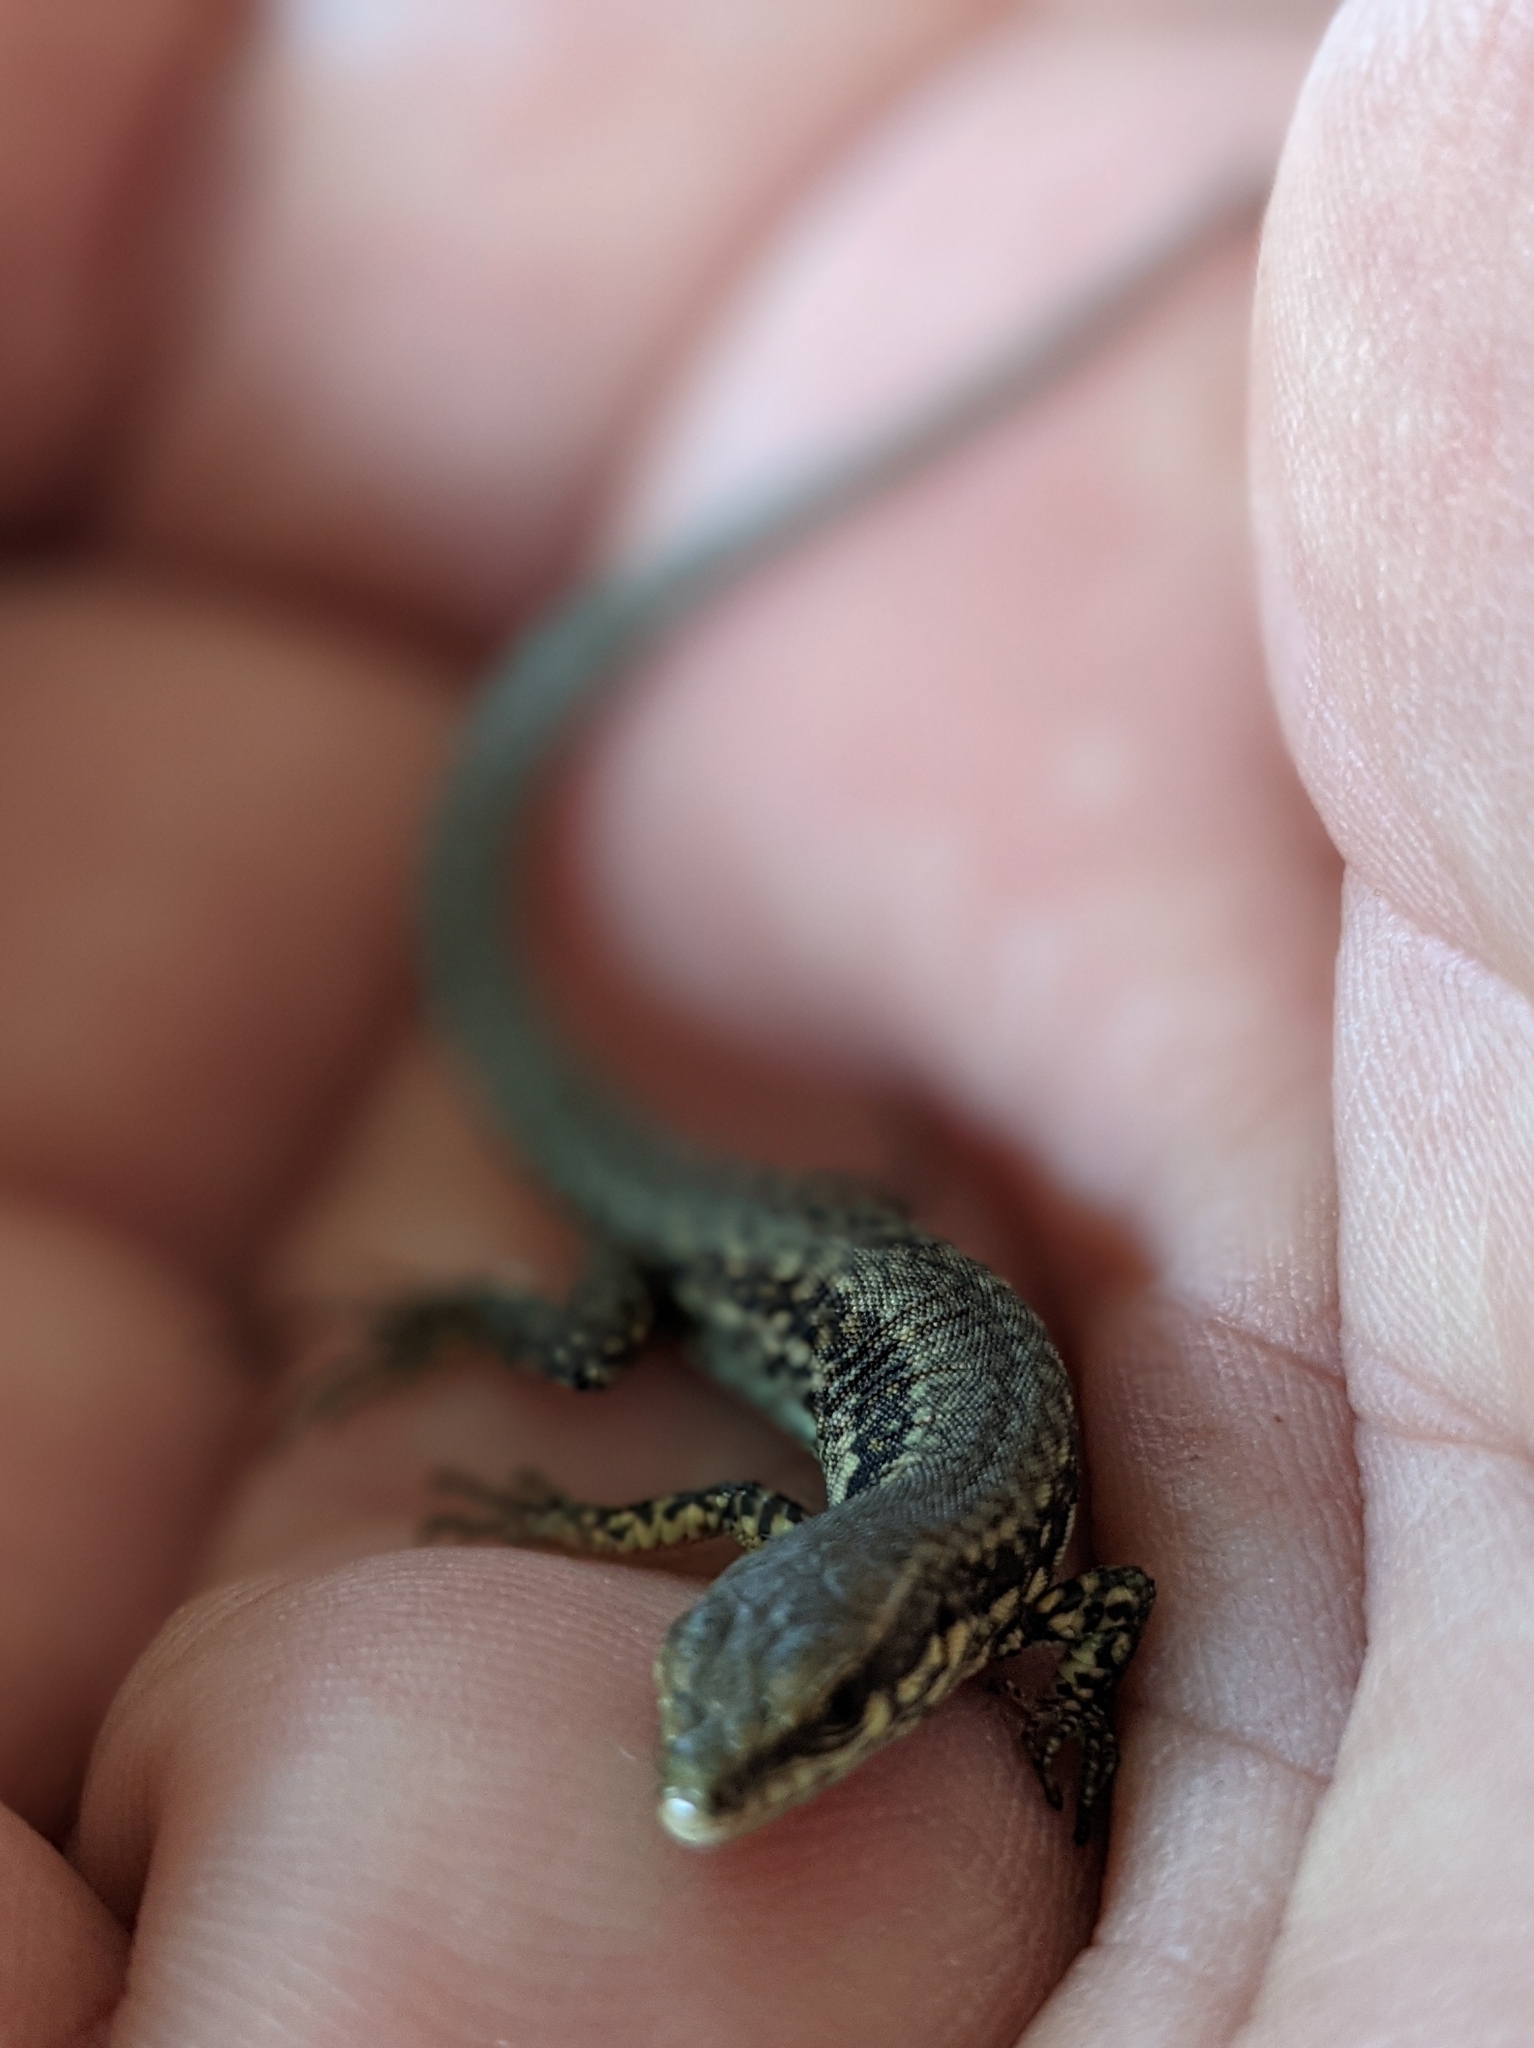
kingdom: Animalia
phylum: Chordata
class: Squamata
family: Lacertidae
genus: Podarcis
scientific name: Podarcis muralis
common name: Common wall lizard
